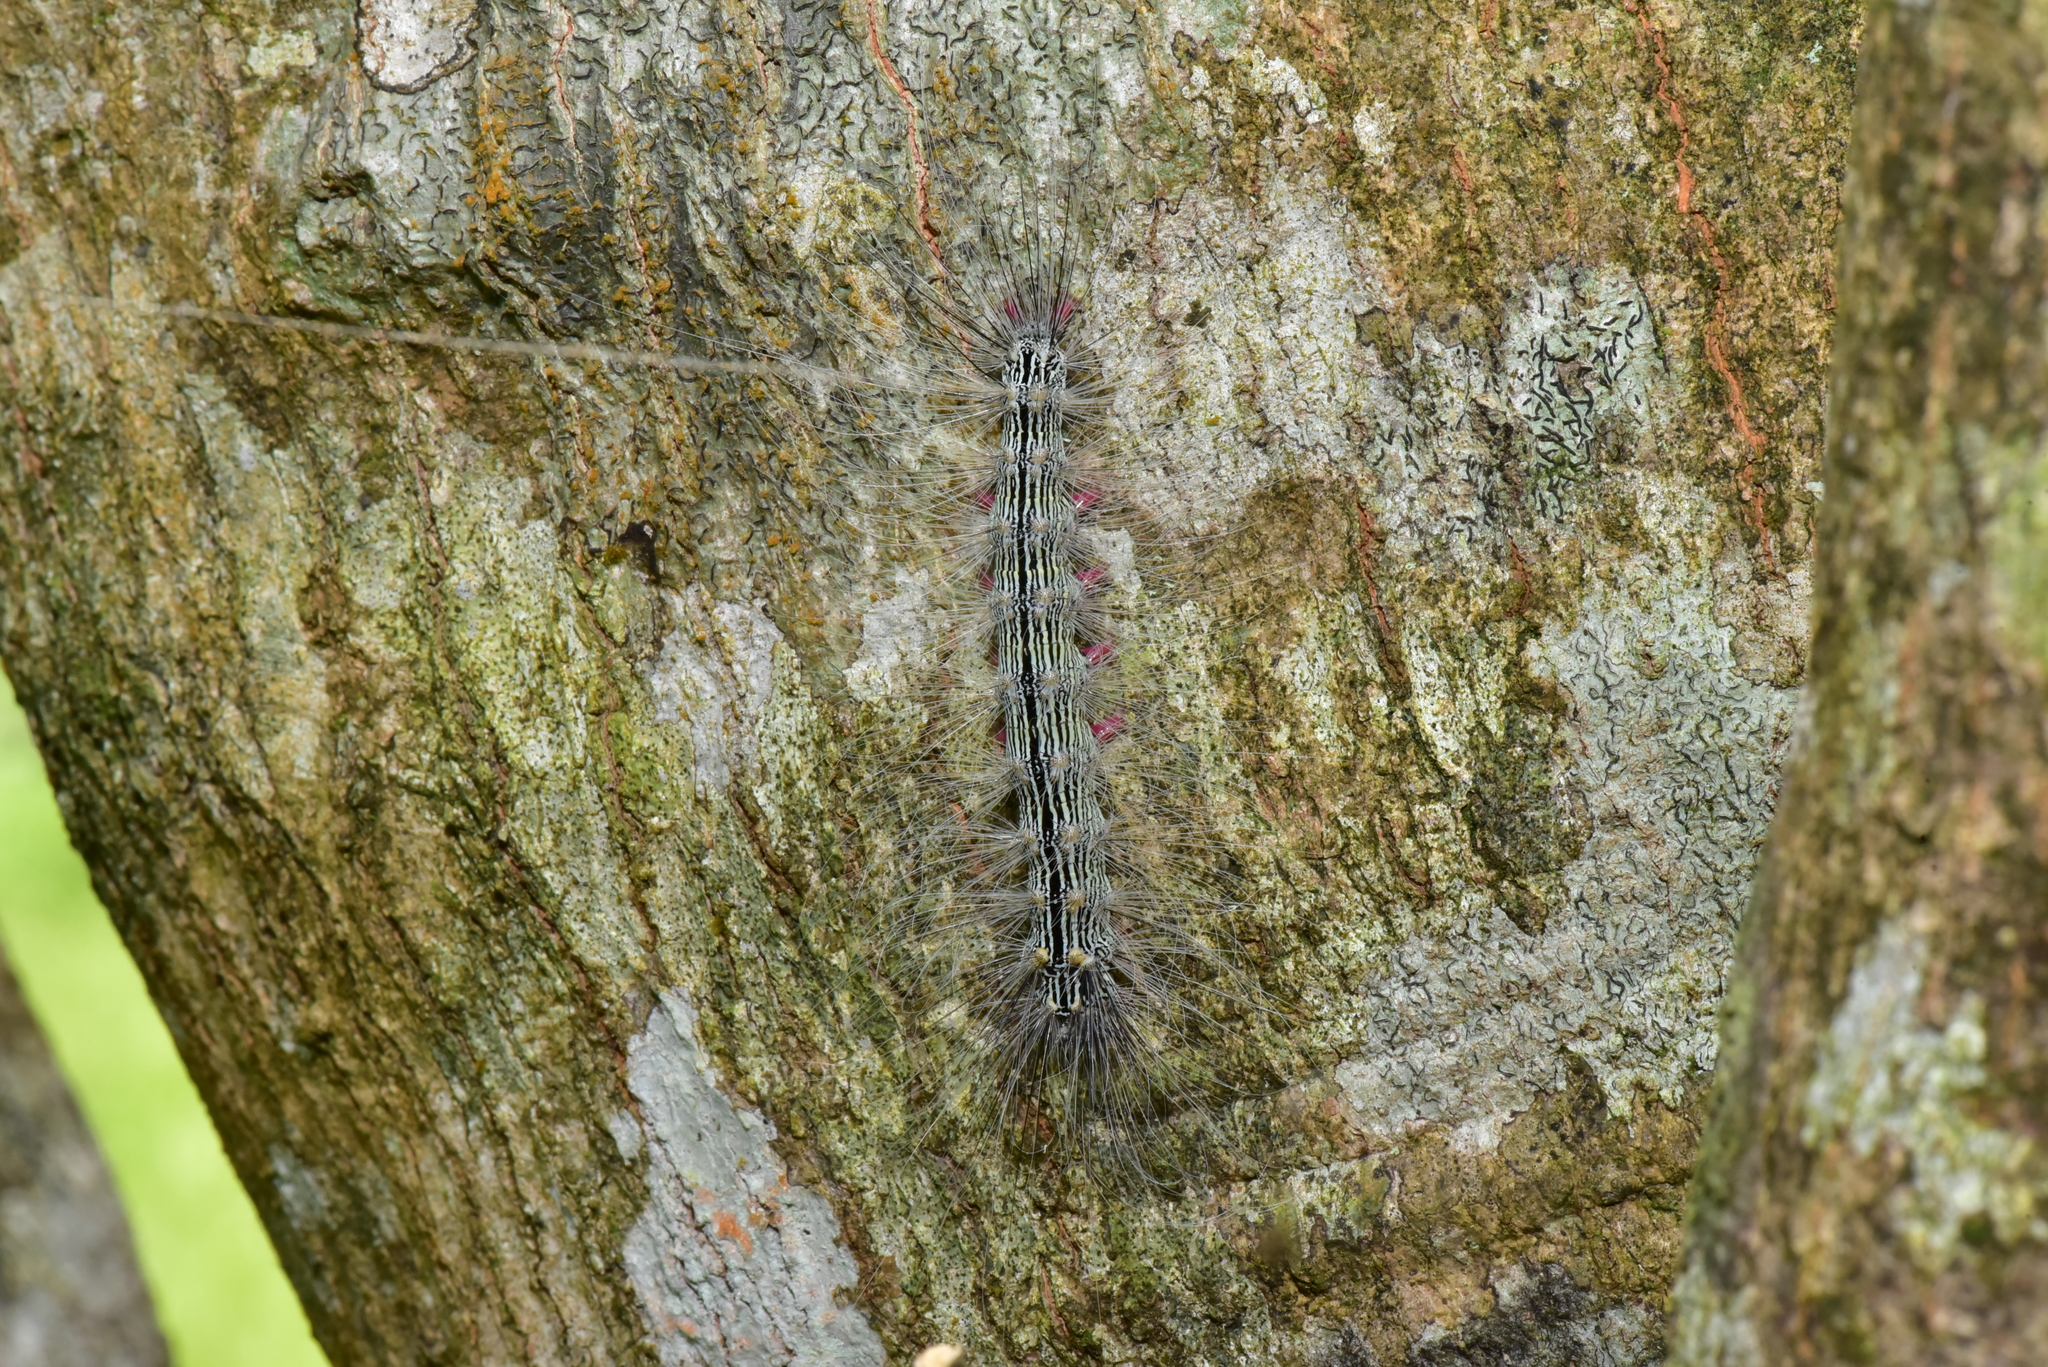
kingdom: Animalia
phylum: Arthropoda
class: Insecta
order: Lepidoptera
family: Erebidae
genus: Chrysaeglia
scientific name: Chrysaeglia magnifica
